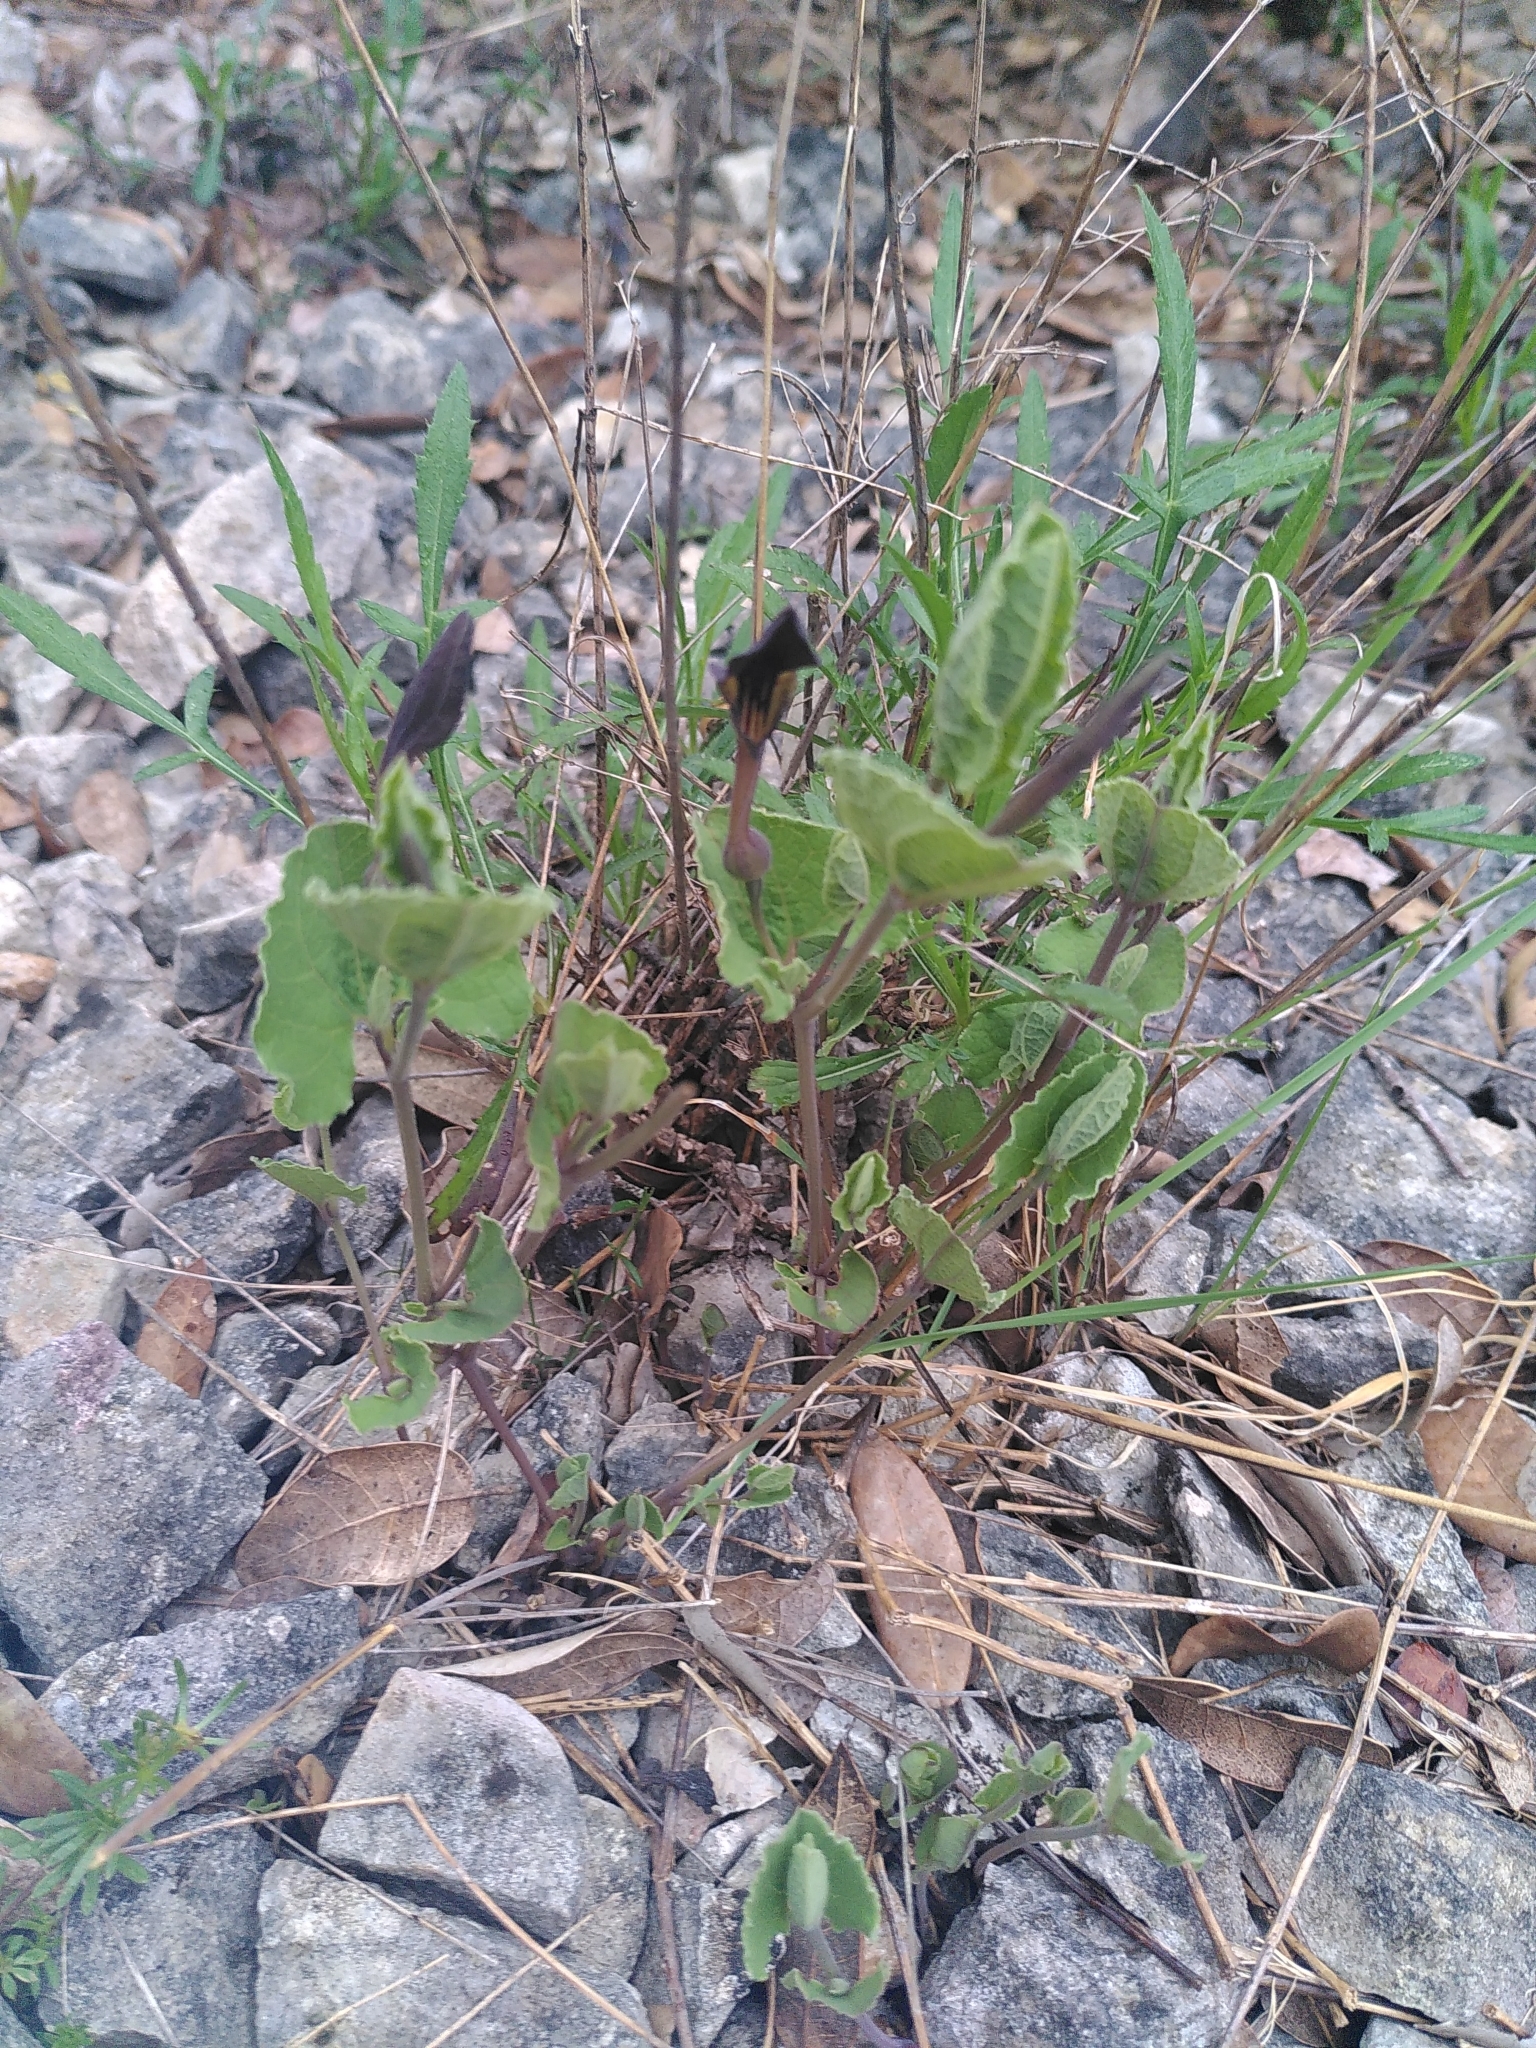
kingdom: Plantae
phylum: Tracheophyta
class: Magnoliopsida
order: Piperales
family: Aristolochiaceae
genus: Aristolochia
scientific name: Aristolochia pistolochia
